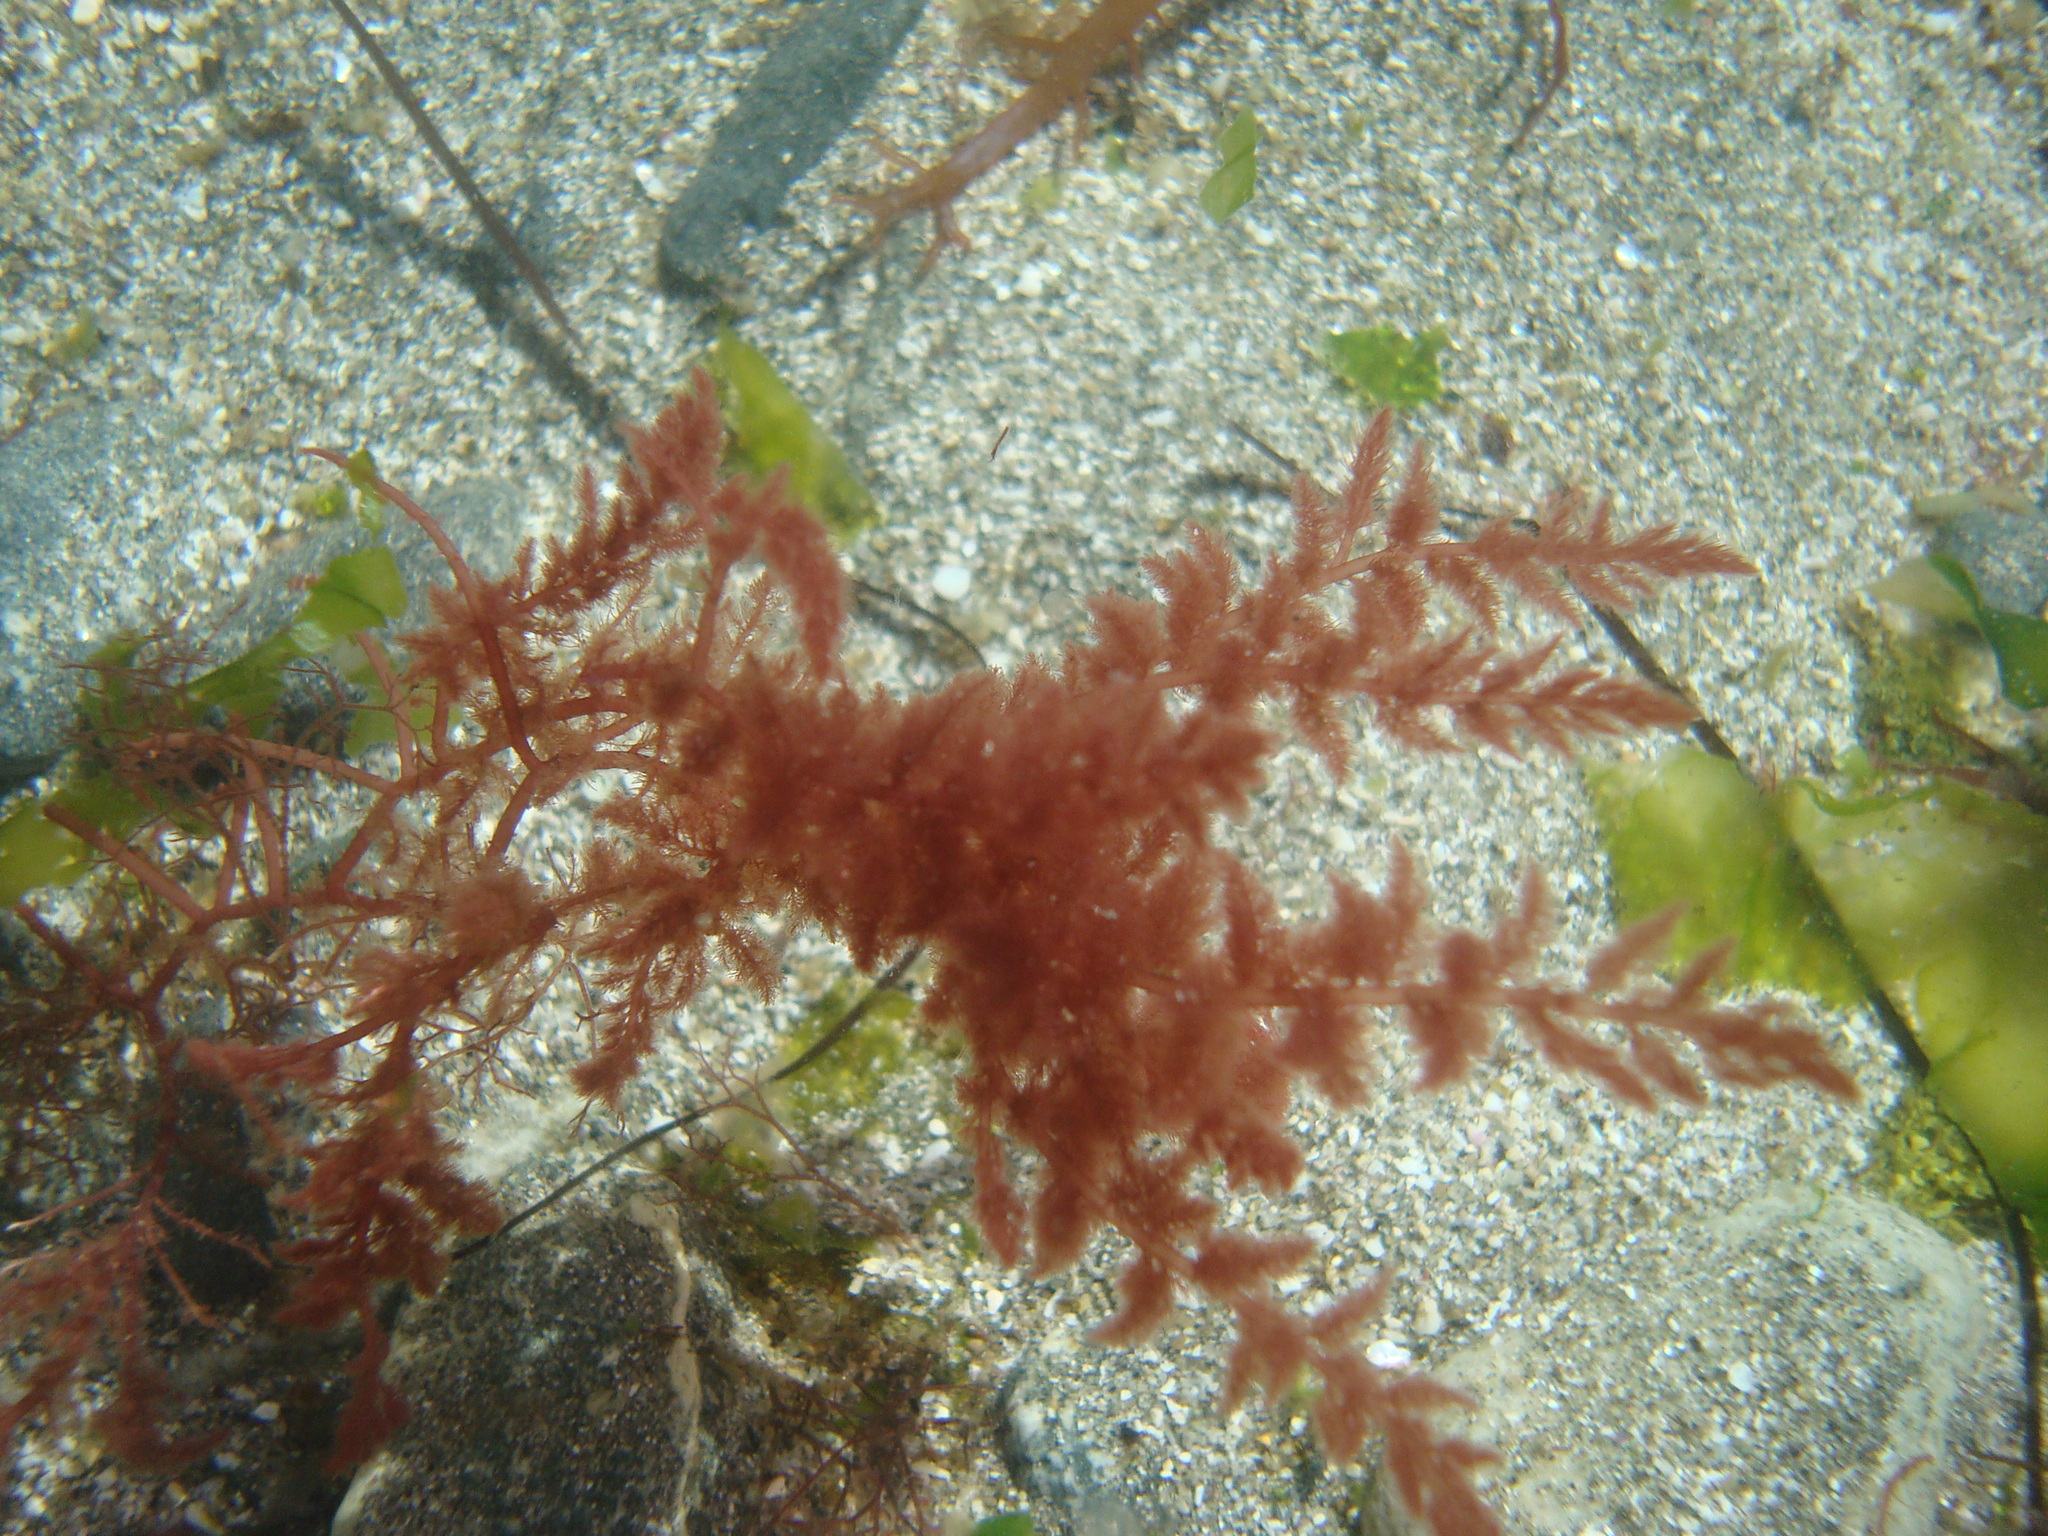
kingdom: Plantae
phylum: Rhodophyta
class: Florideophyceae
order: Bonnemaisoniales
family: Bonnemaisoniaceae
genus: Asparagopsis
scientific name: Asparagopsis armata
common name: Harpoon weed
